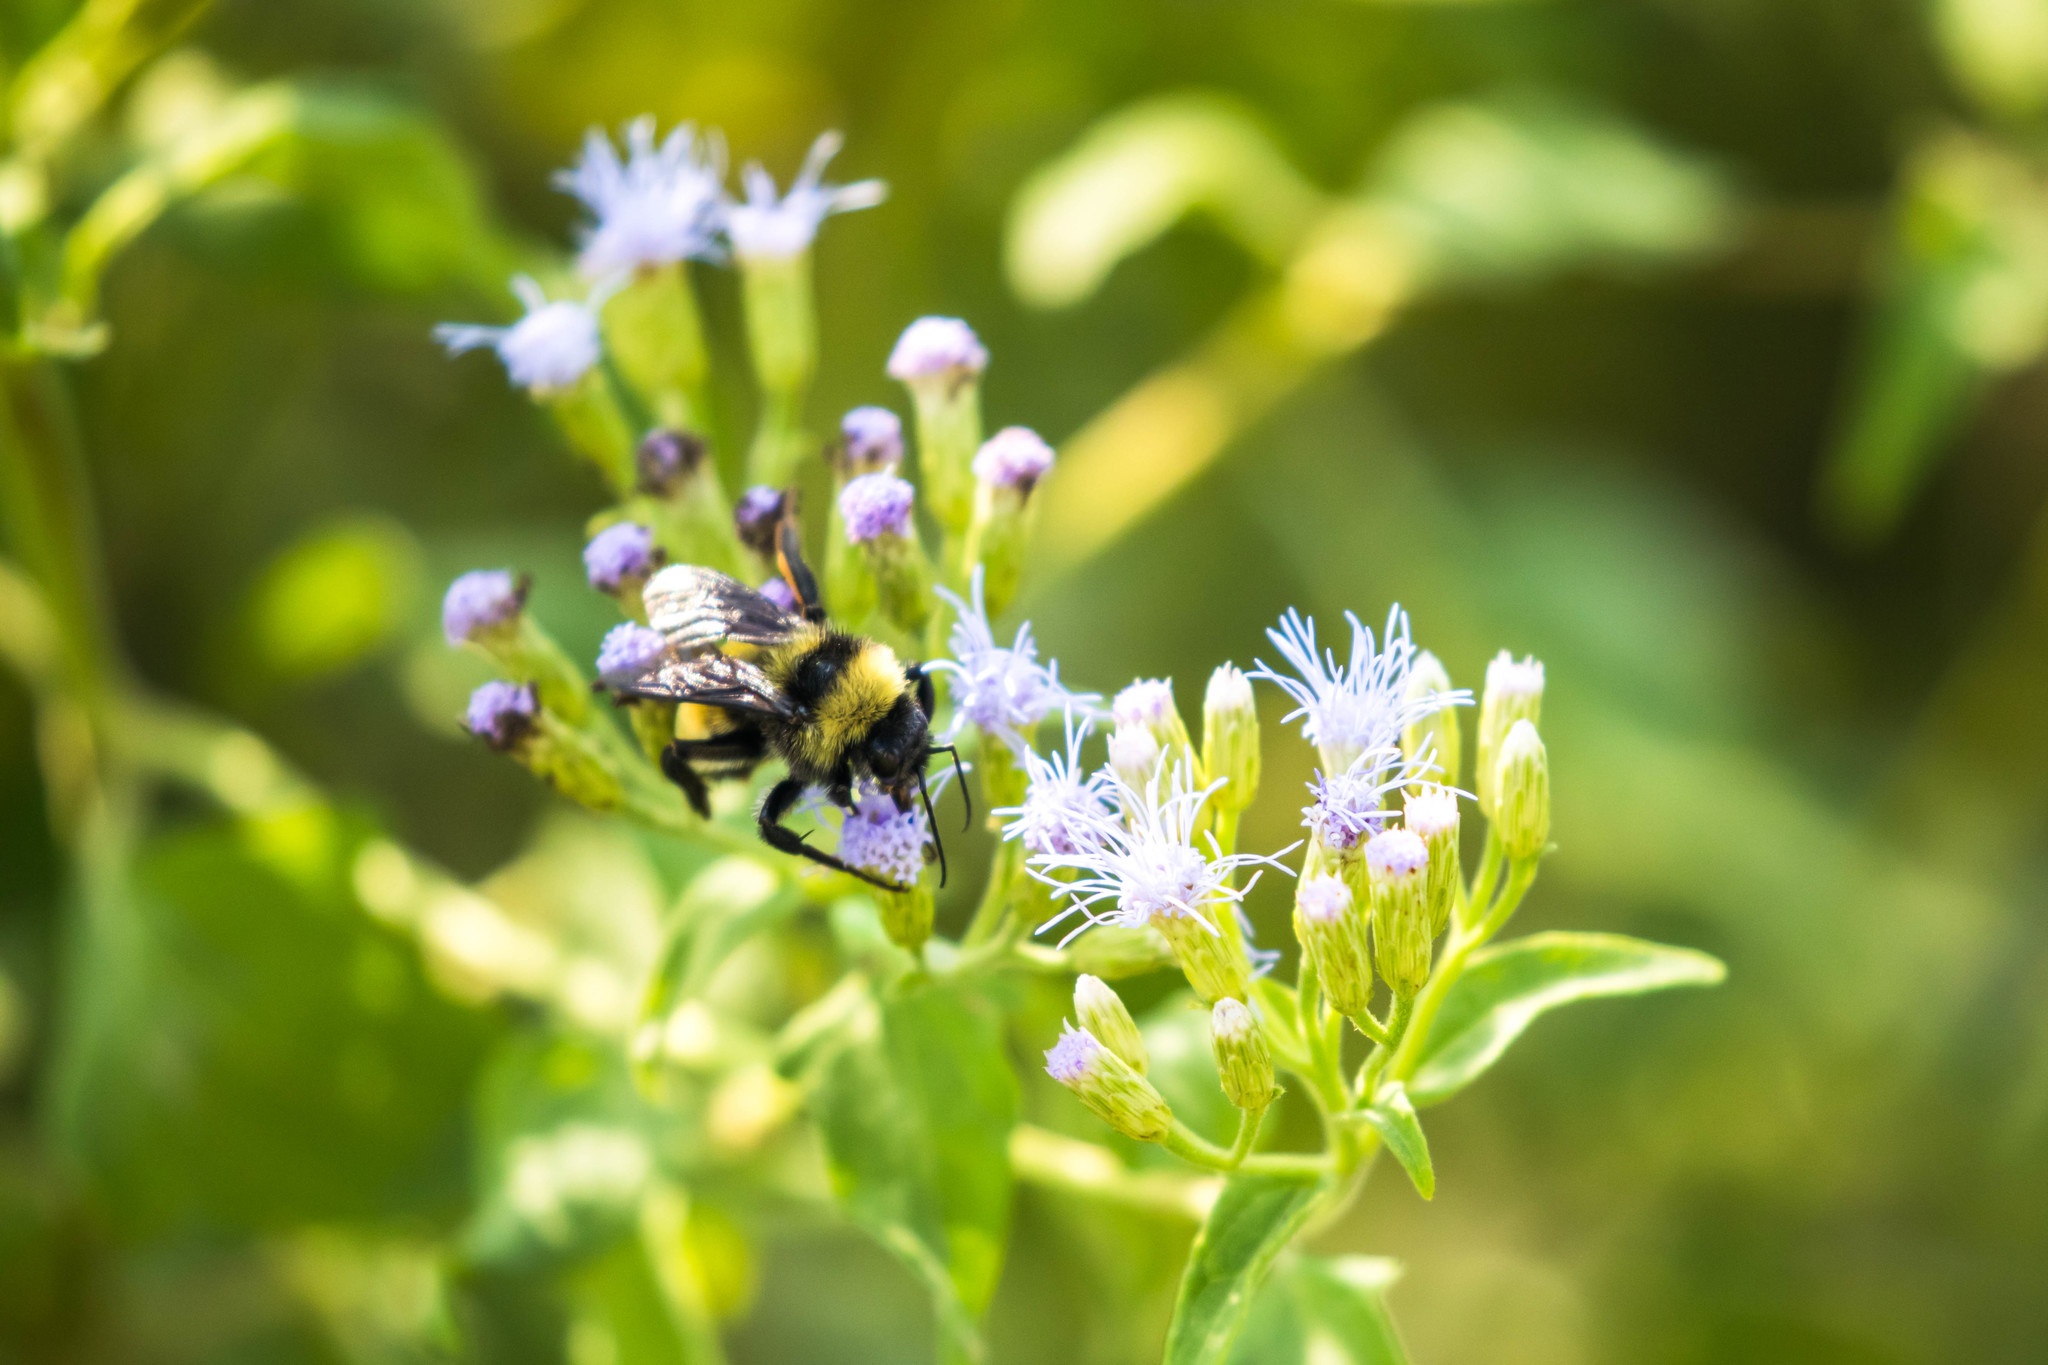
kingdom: Animalia
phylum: Arthropoda
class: Insecta
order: Hymenoptera
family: Apidae
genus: Bombus
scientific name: Bombus pensylvanicus
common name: Bumble bee
